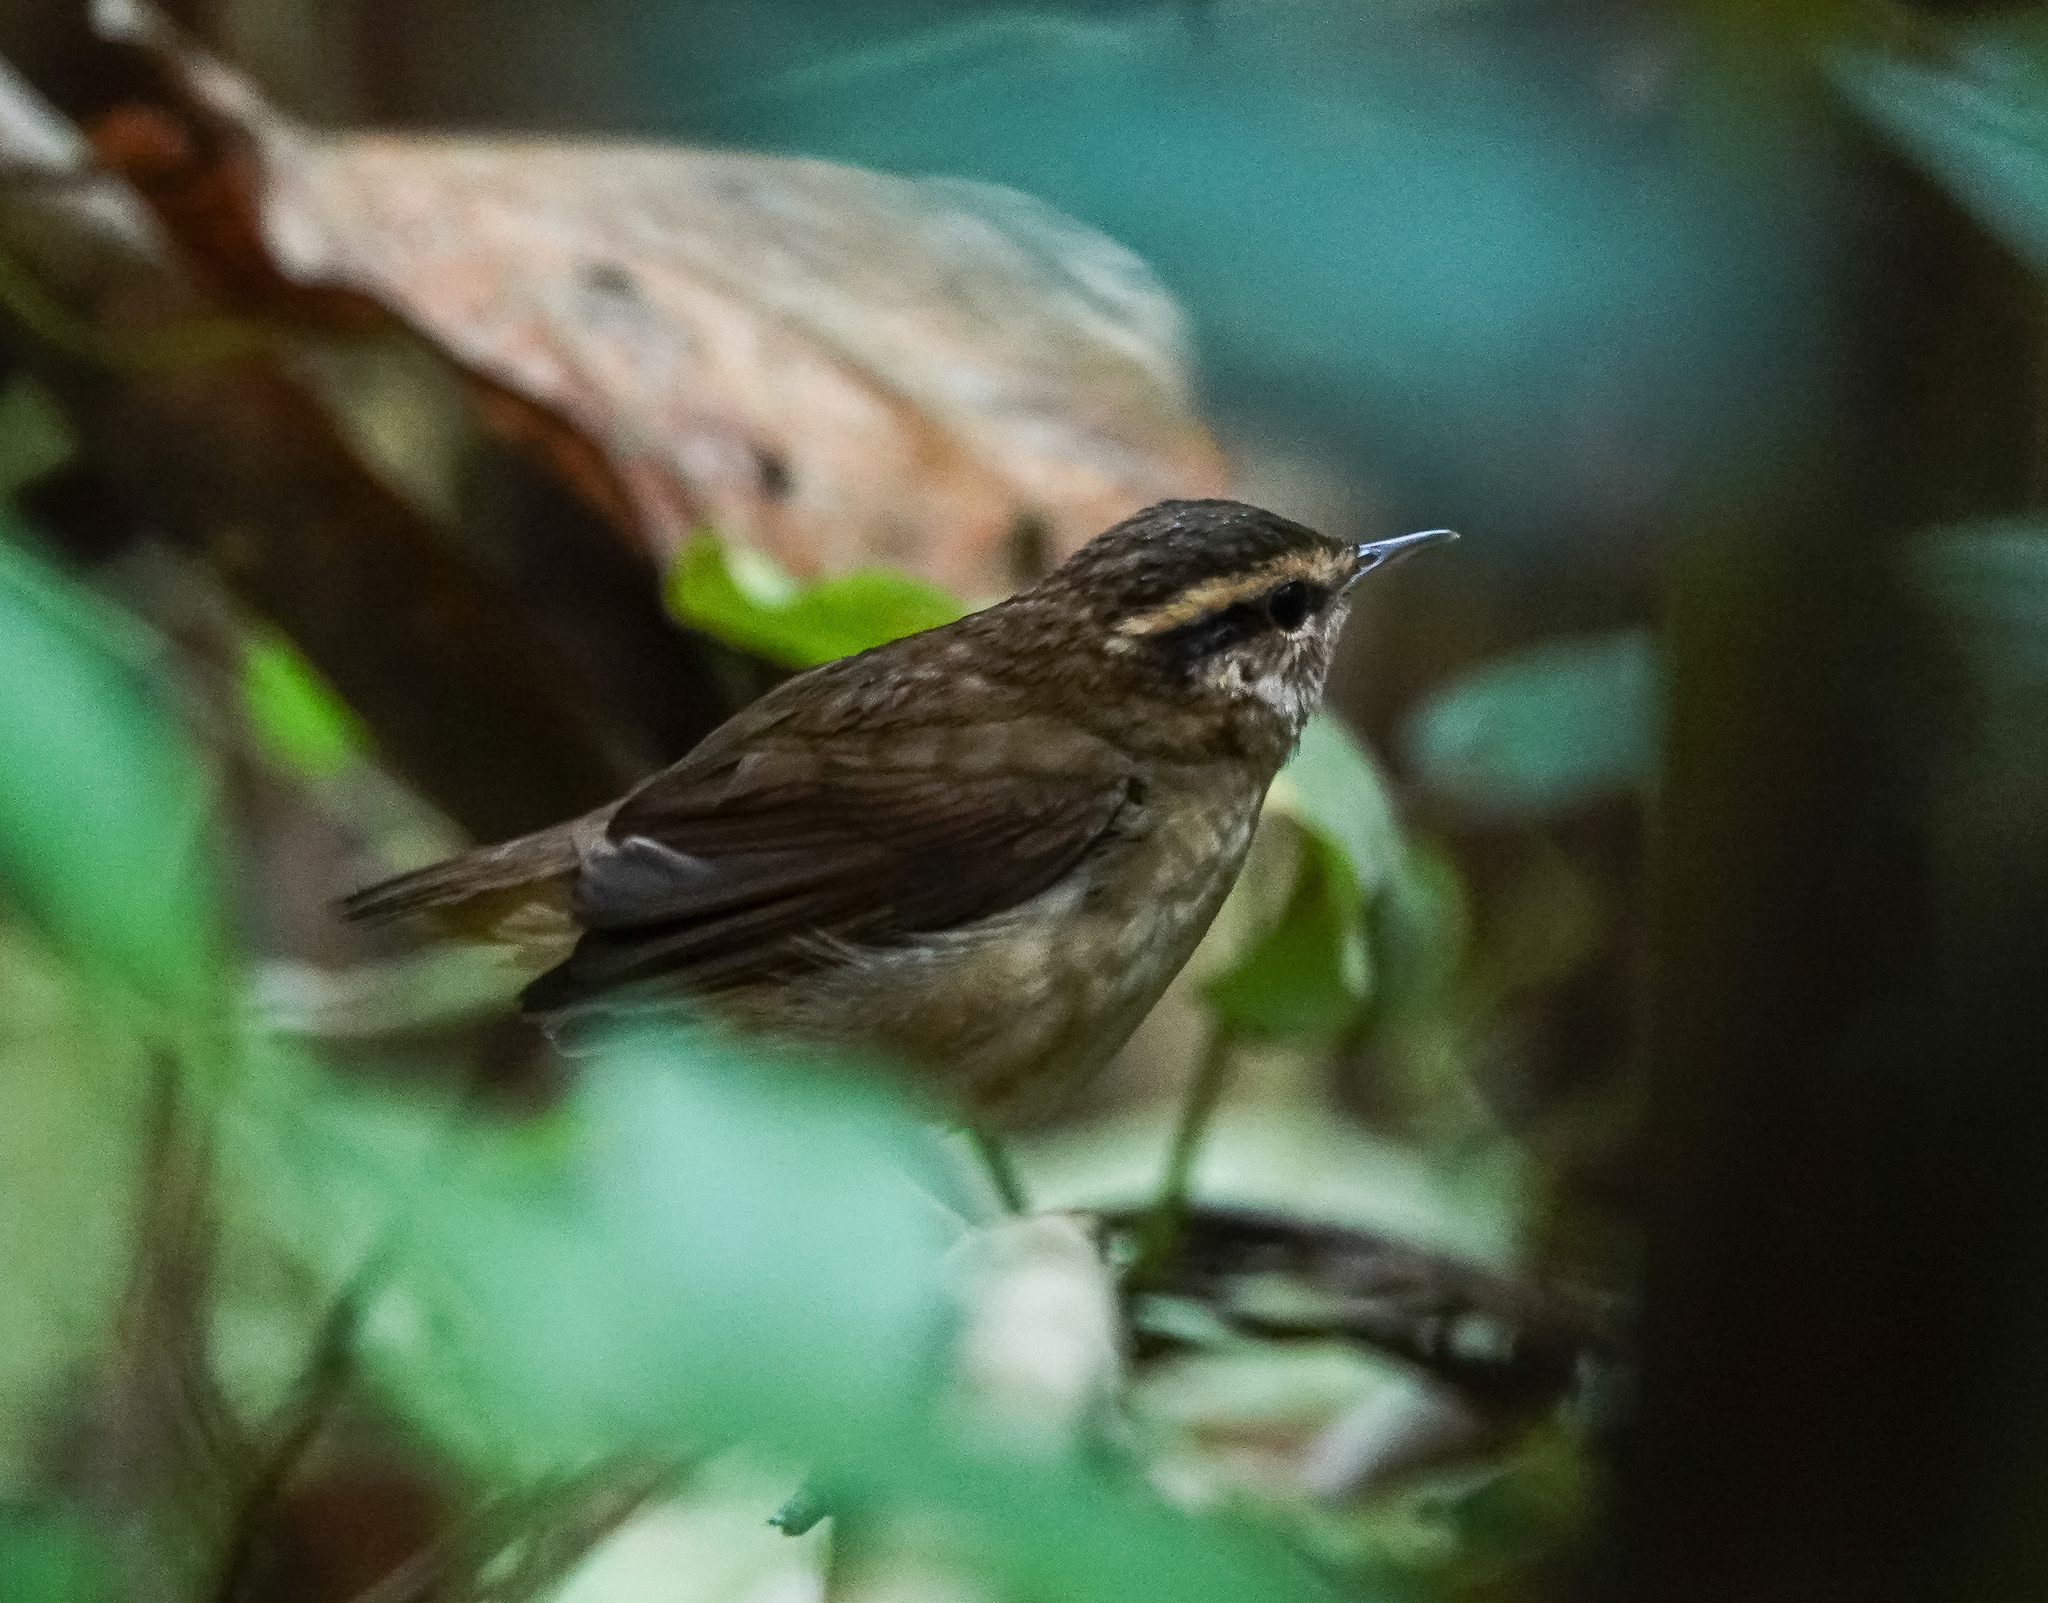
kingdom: Animalia
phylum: Chordata
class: Aves
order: Passeriformes
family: Cettiidae
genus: Urosphena
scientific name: Urosphena squameiceps
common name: Asian stubtail
